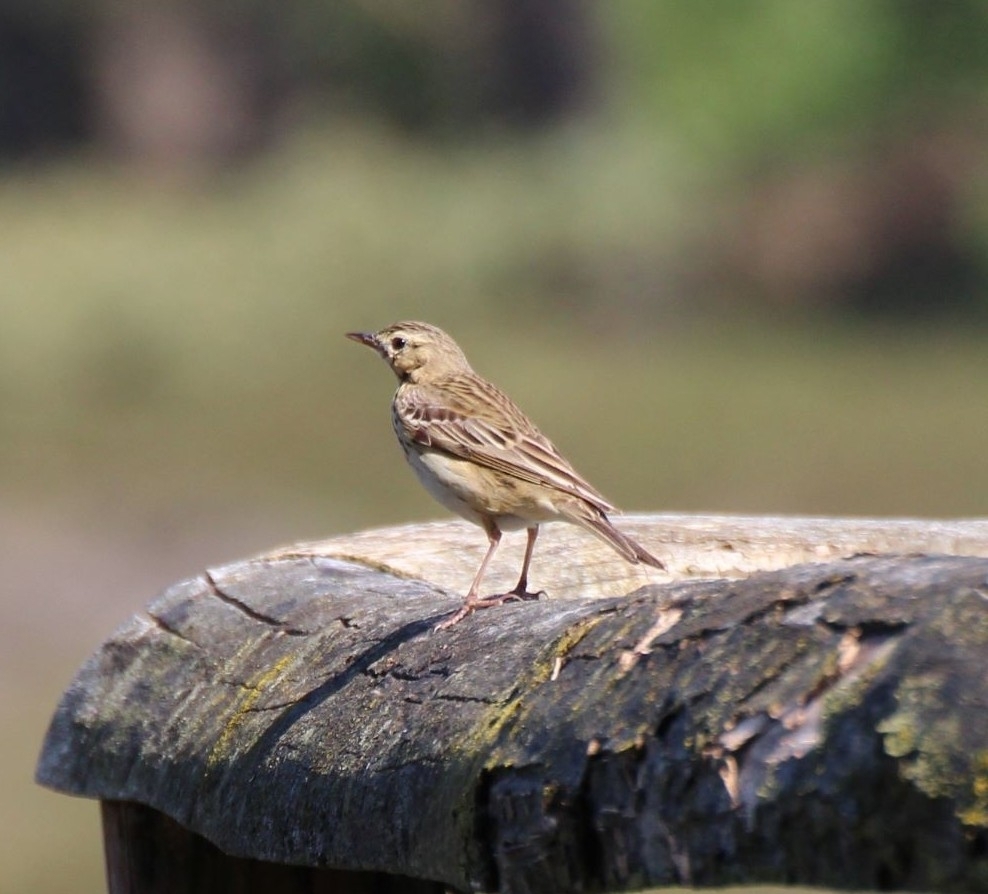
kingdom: Animalia
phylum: Chordata
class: Aves
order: Passeriformes
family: Motacillidae
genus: Anthus
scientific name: Anthus trivialis
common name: Tree pipit
